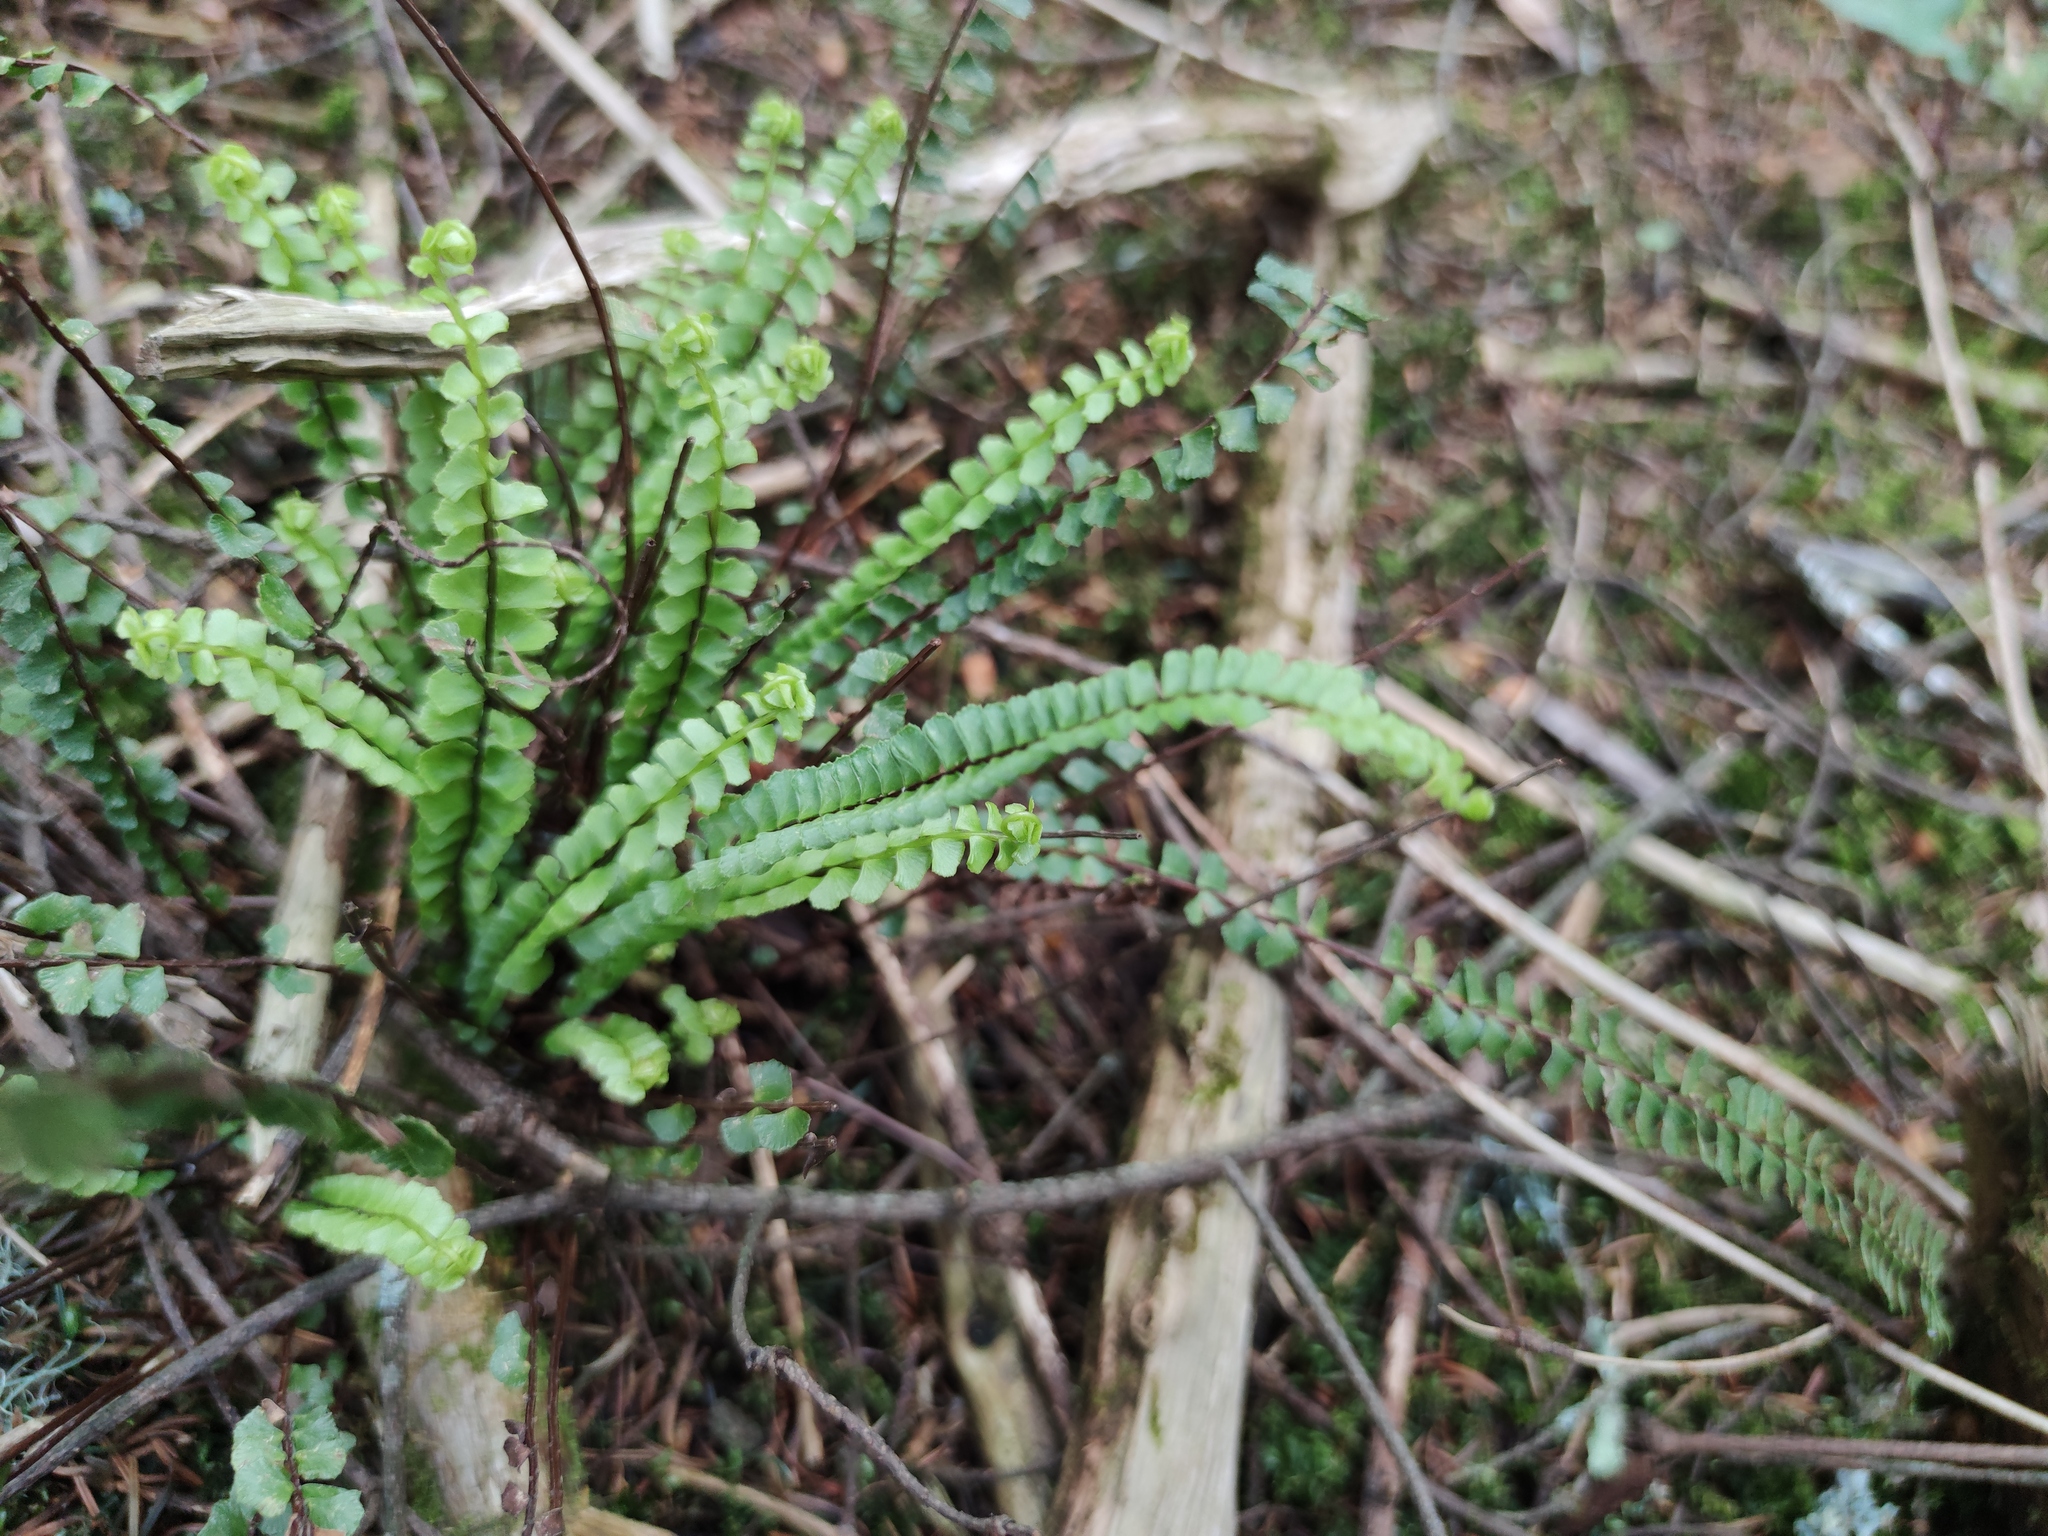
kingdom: Plantae
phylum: Tracheophyta
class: Polypodiopsida
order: Polypodiales
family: Aspleniaceae
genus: Asplenium
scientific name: Asplenium monanthes
